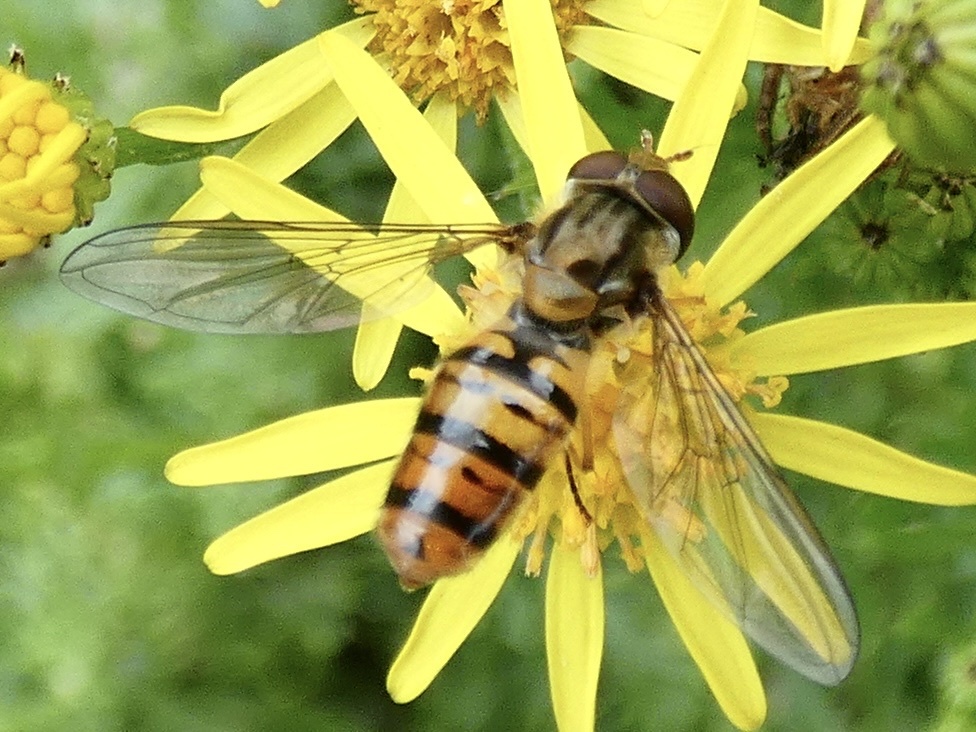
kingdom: Animalia
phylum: Arthropoda
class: Insecta
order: Diptera
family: Syrphidae
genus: Episyrphus
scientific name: Episyrphus balteatus
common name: Marmalade hoverfly
